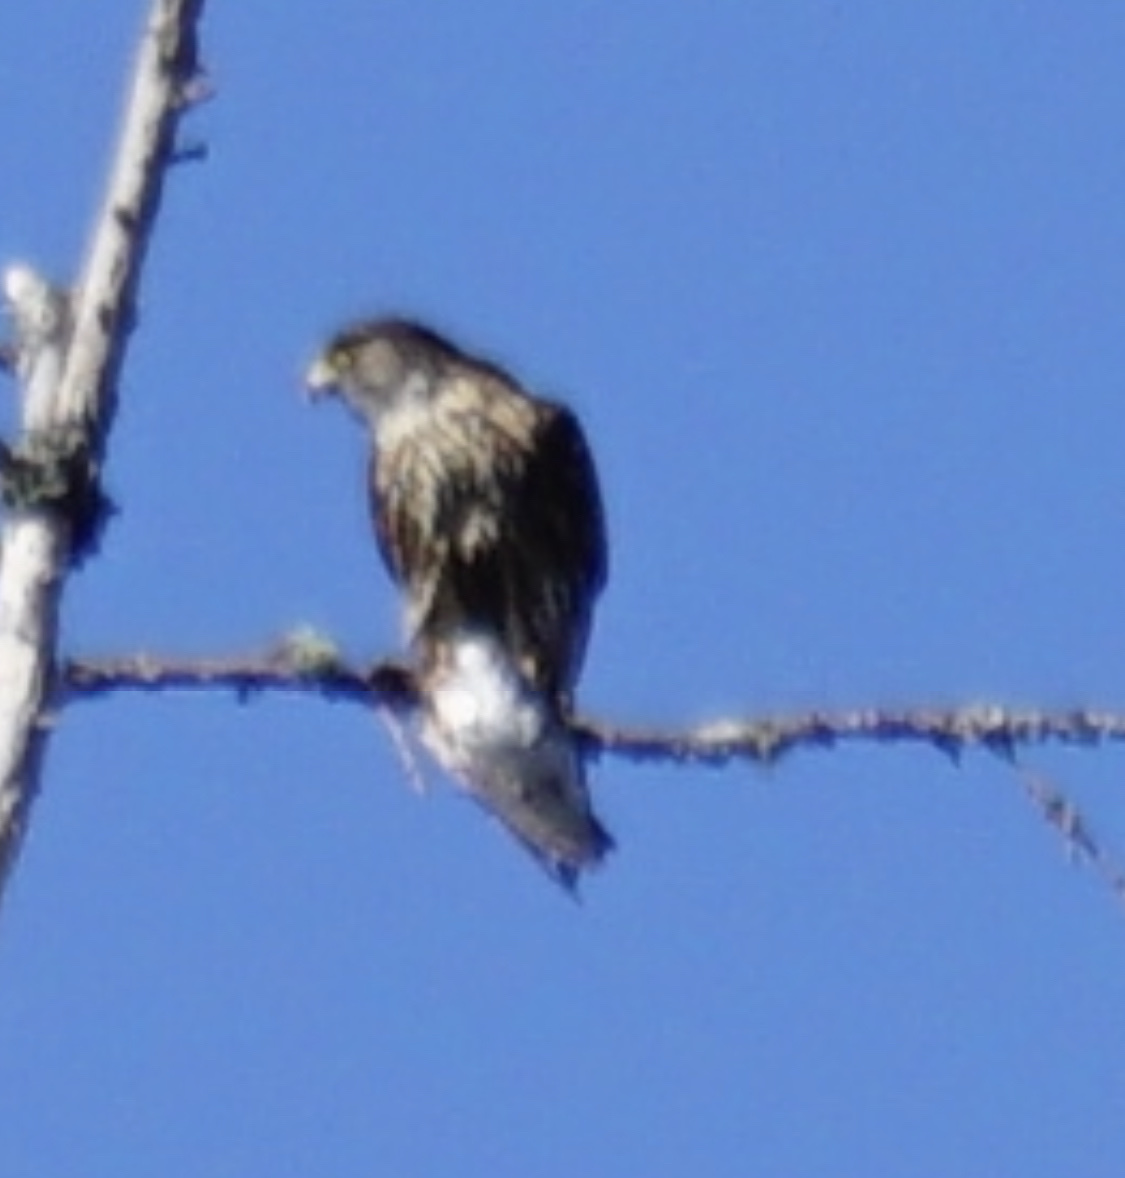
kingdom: Animalia
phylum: Chordata
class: Aves
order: Falconiformes
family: Falconidae
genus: Falco
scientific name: Falco columbarius
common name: Merlin
